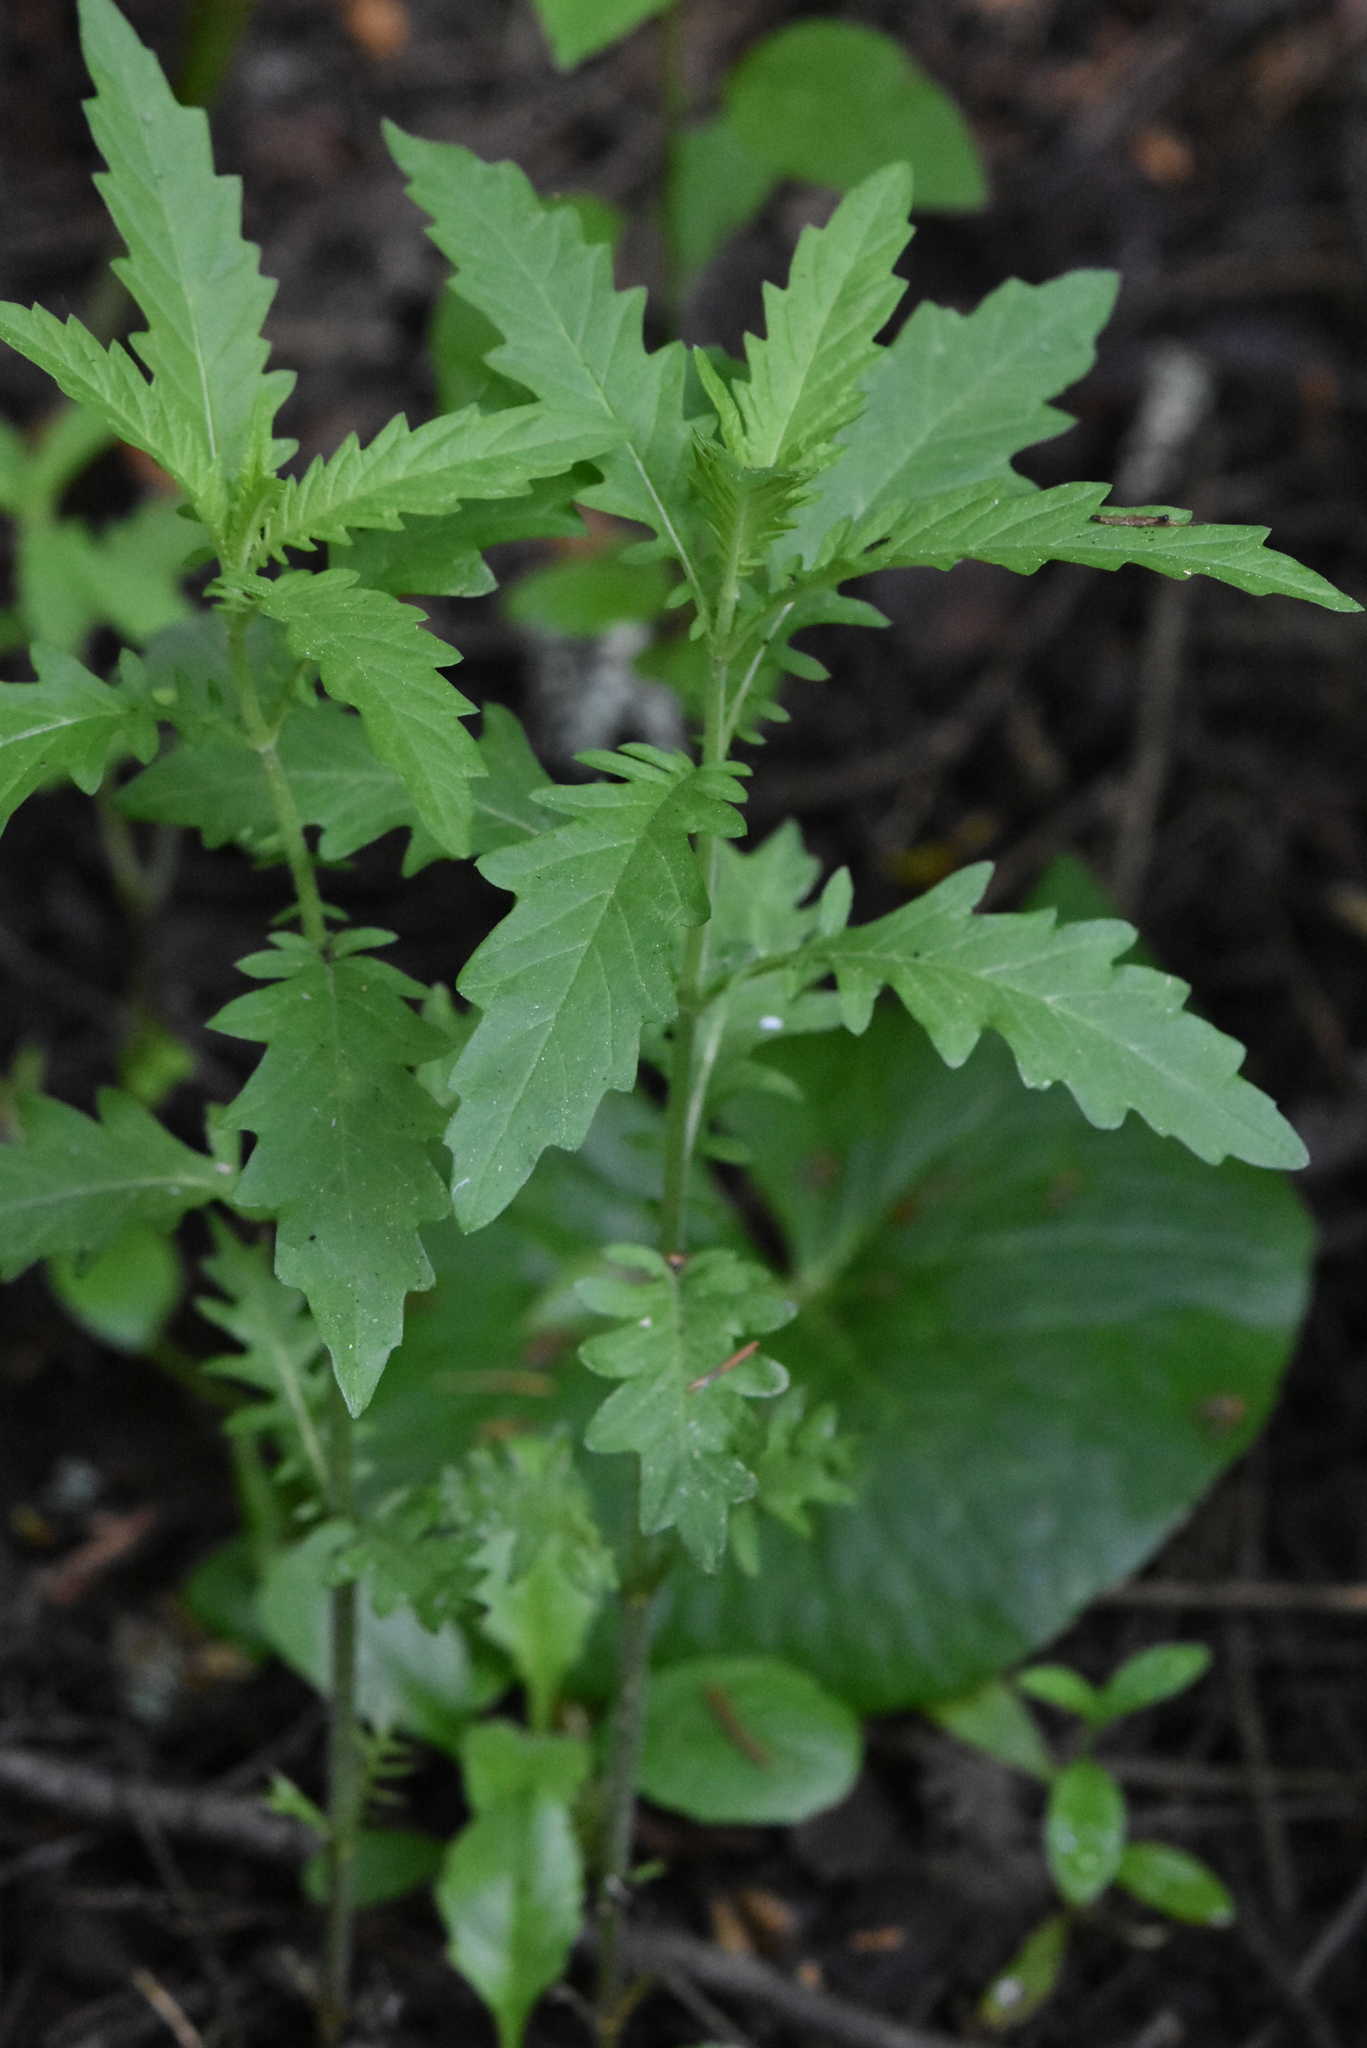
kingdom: Plantae
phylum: Tracheophyta
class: Magnoliopsida
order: Lamiales
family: Lamiaceae
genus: Lycopus
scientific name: Lycopus europaeus
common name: European bugleweed
